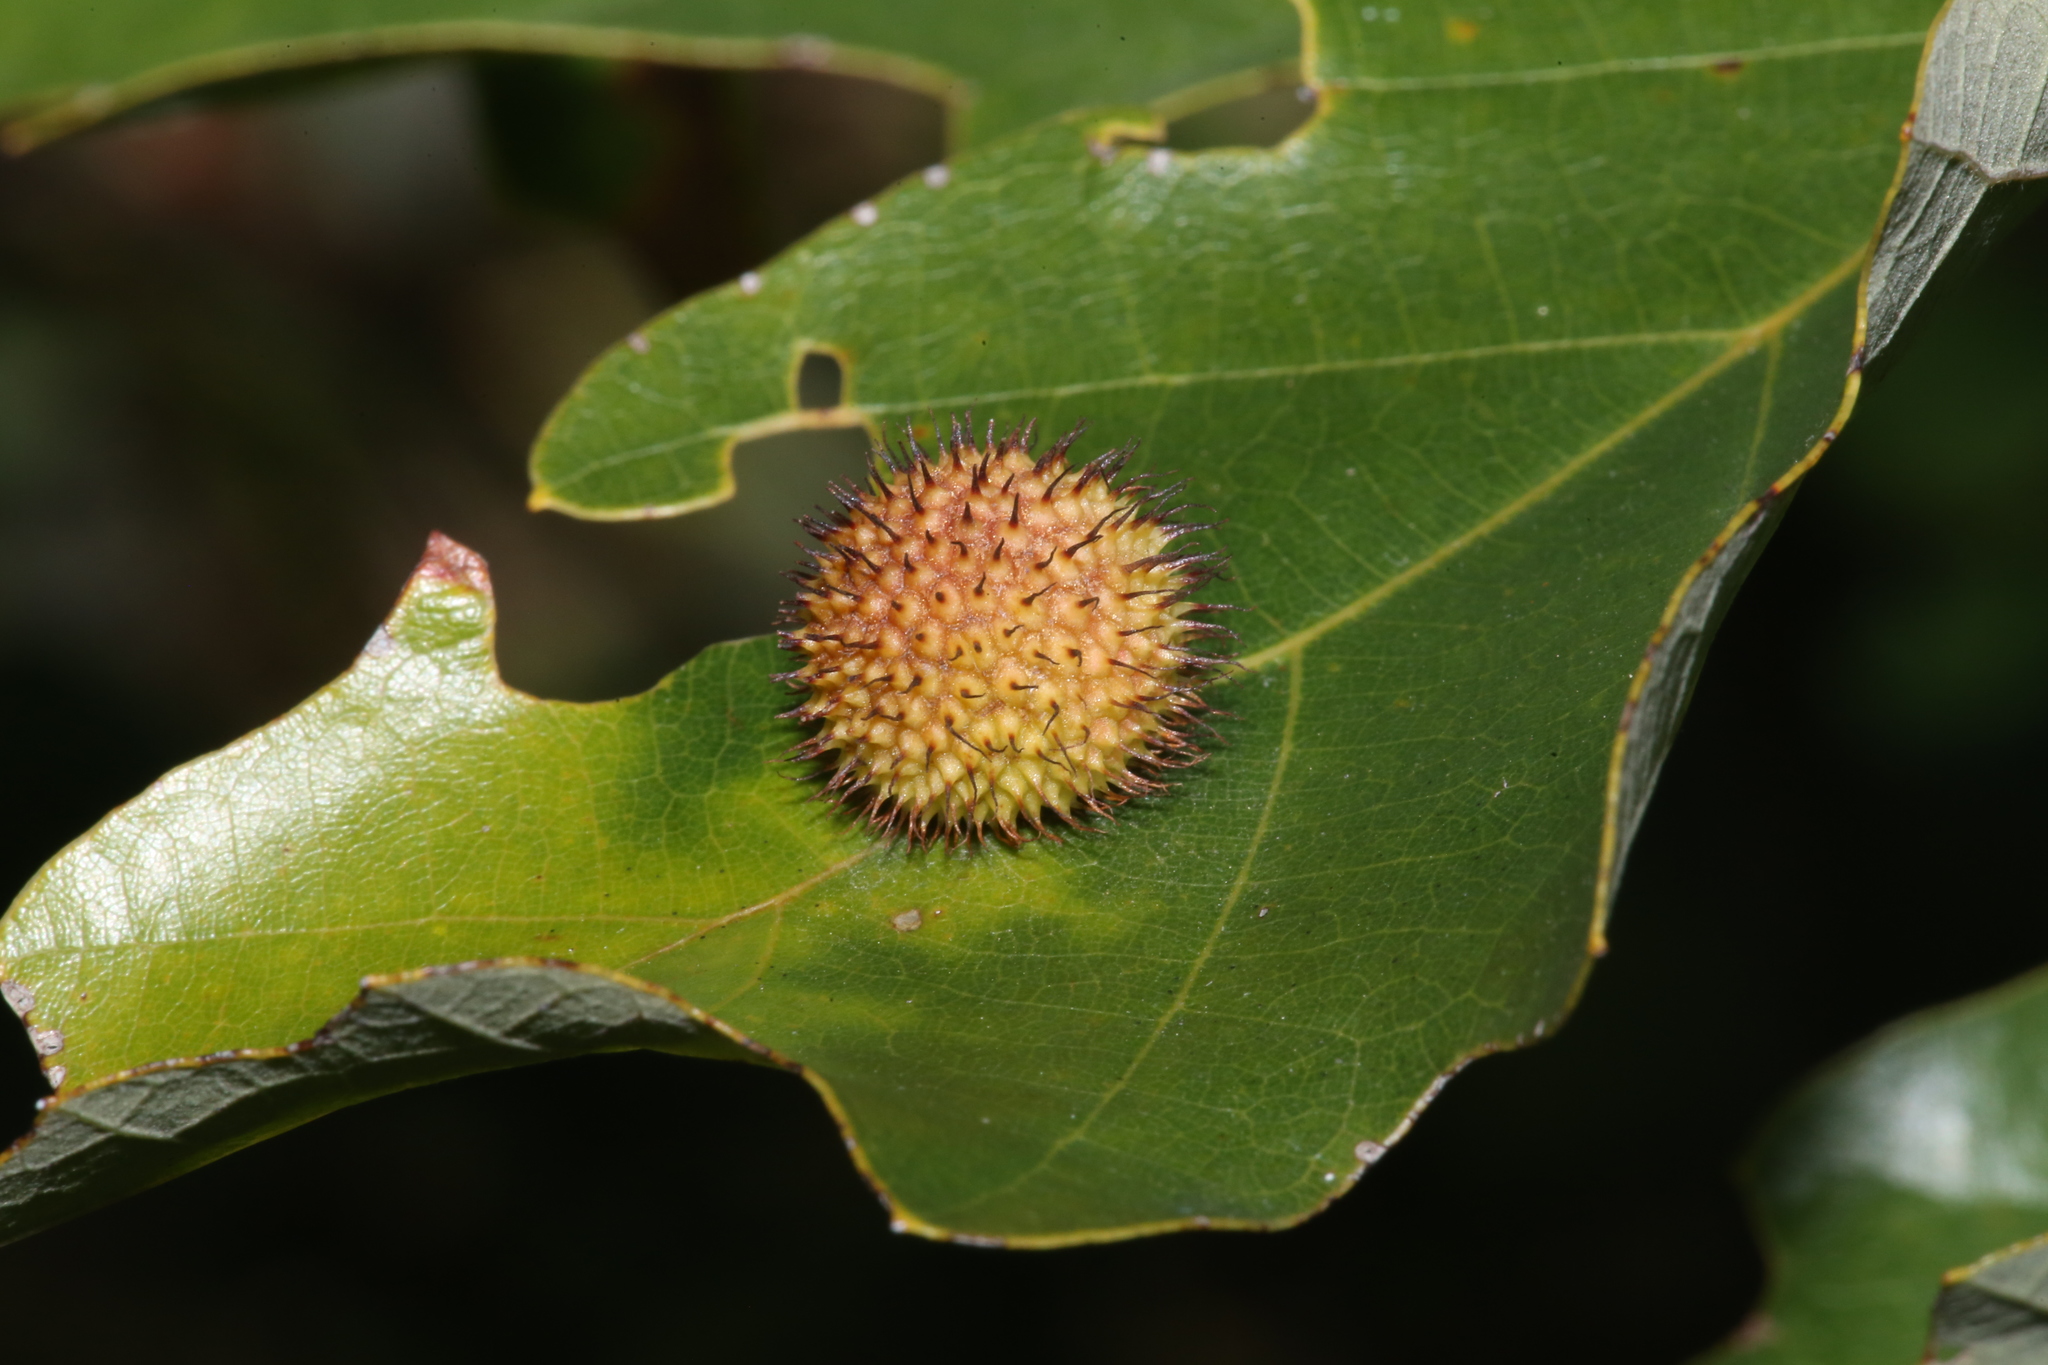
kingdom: Animalia
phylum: Arthropoda
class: Insecta
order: Hymenoptera
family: Cynipidae
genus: Acraspis
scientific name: Acraspis
